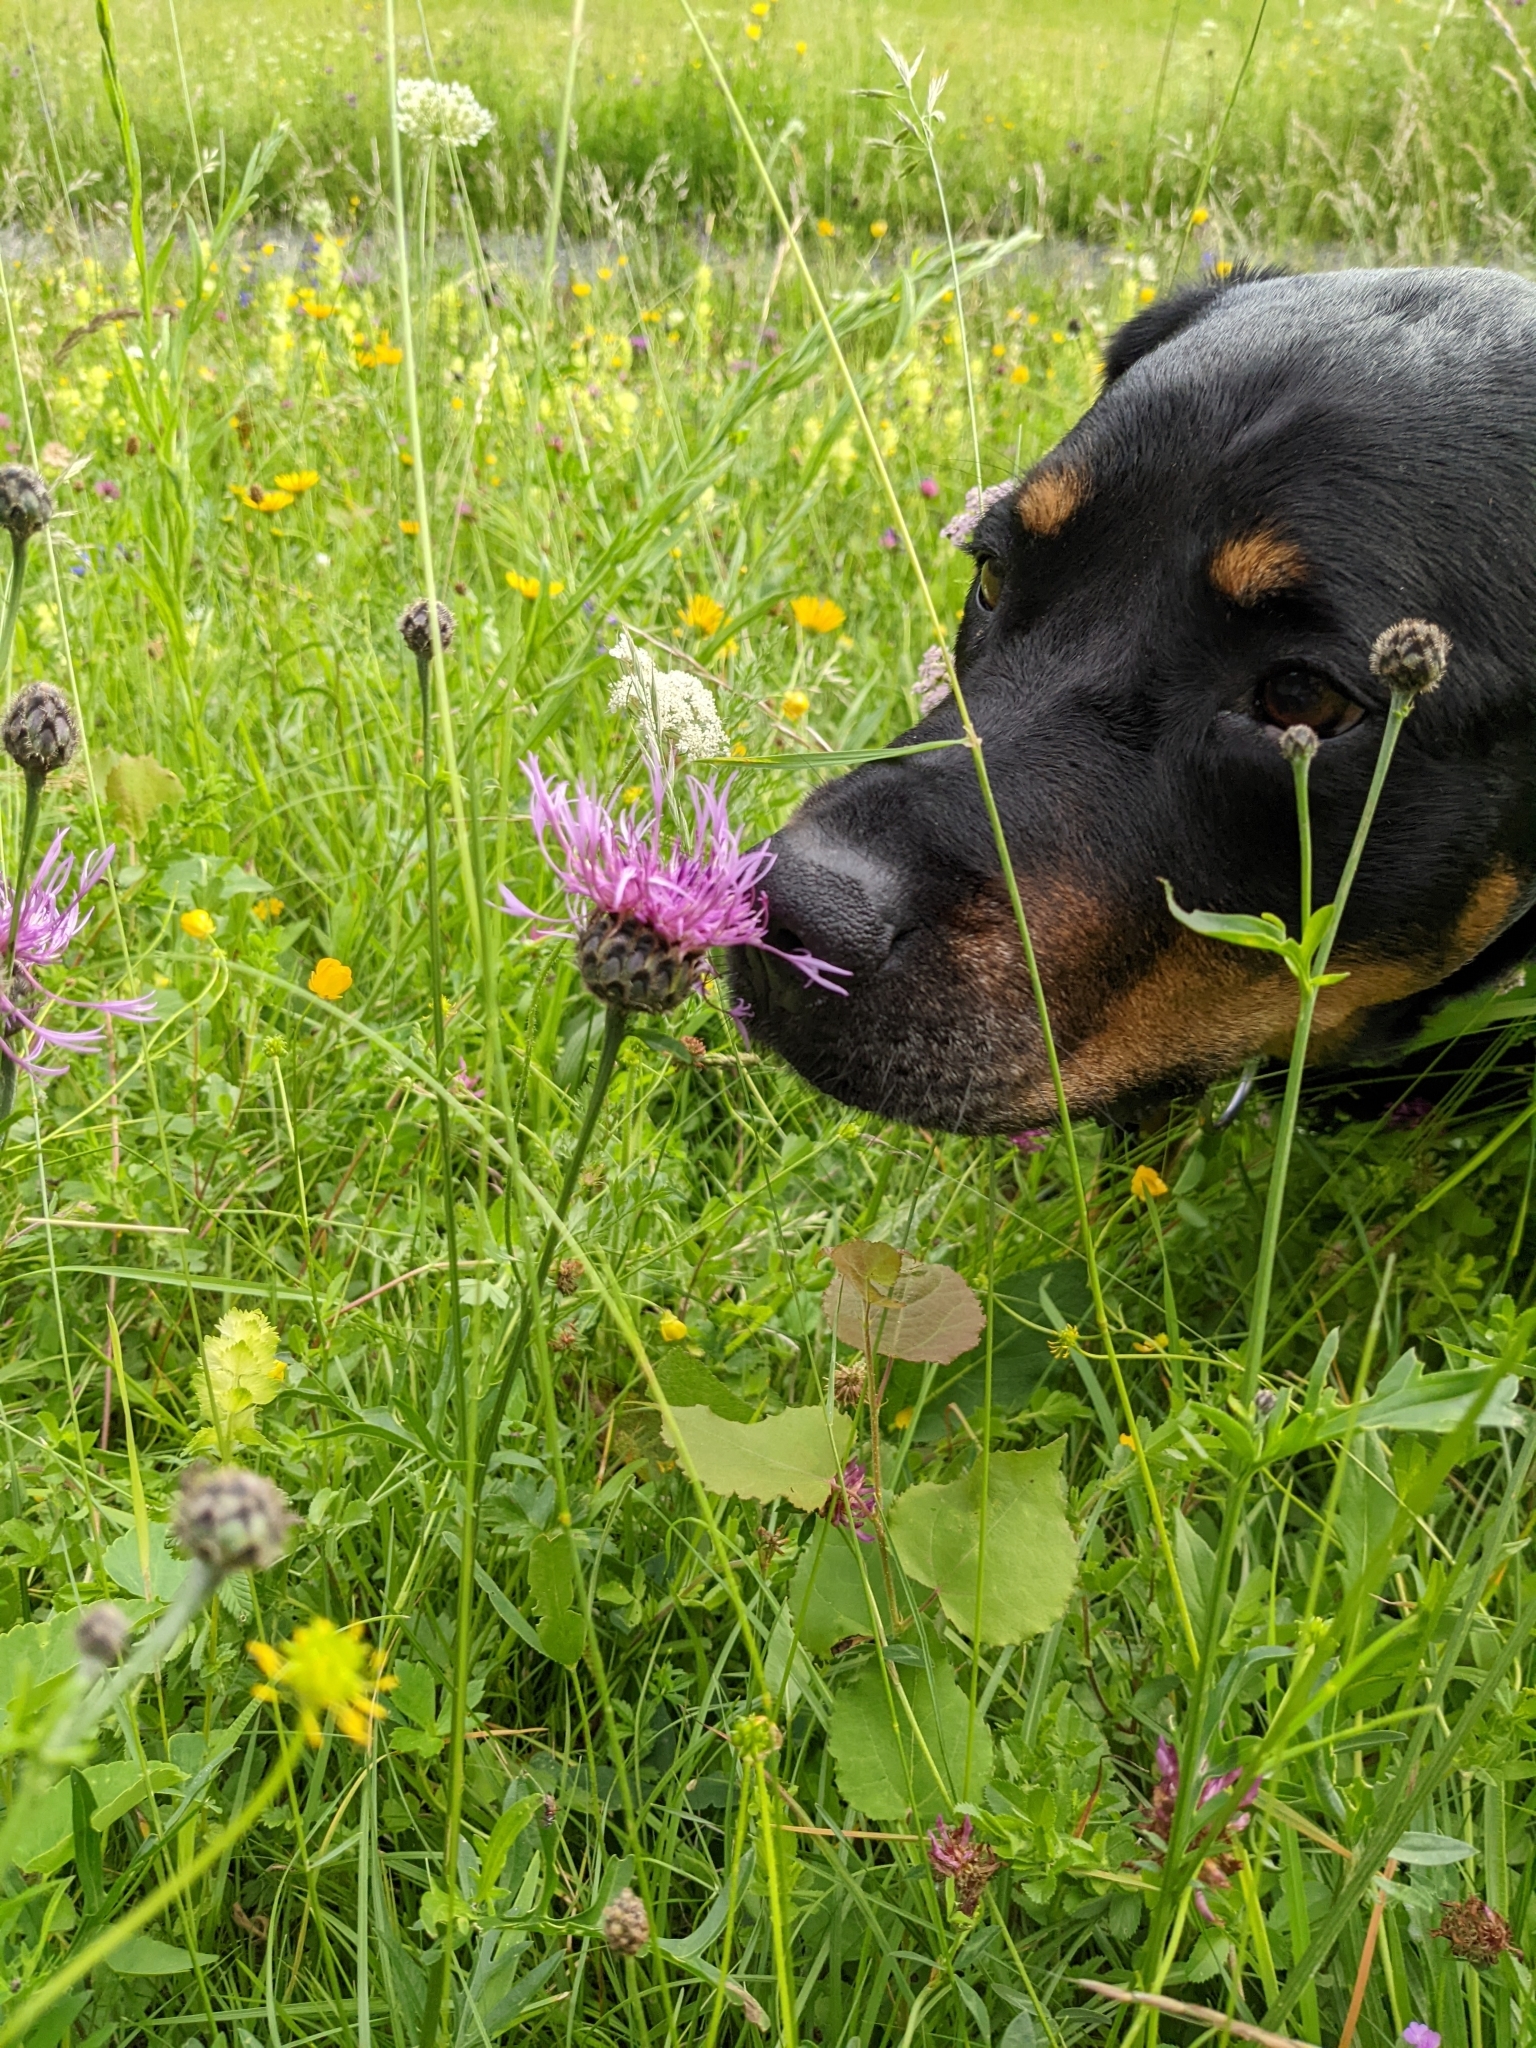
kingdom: Plantae
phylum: Tracheophyta
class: Magnoliopsida
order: Asterales
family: Asteraceae
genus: Centaurea
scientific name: Centaurea scabiosa
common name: Greater knapweed
